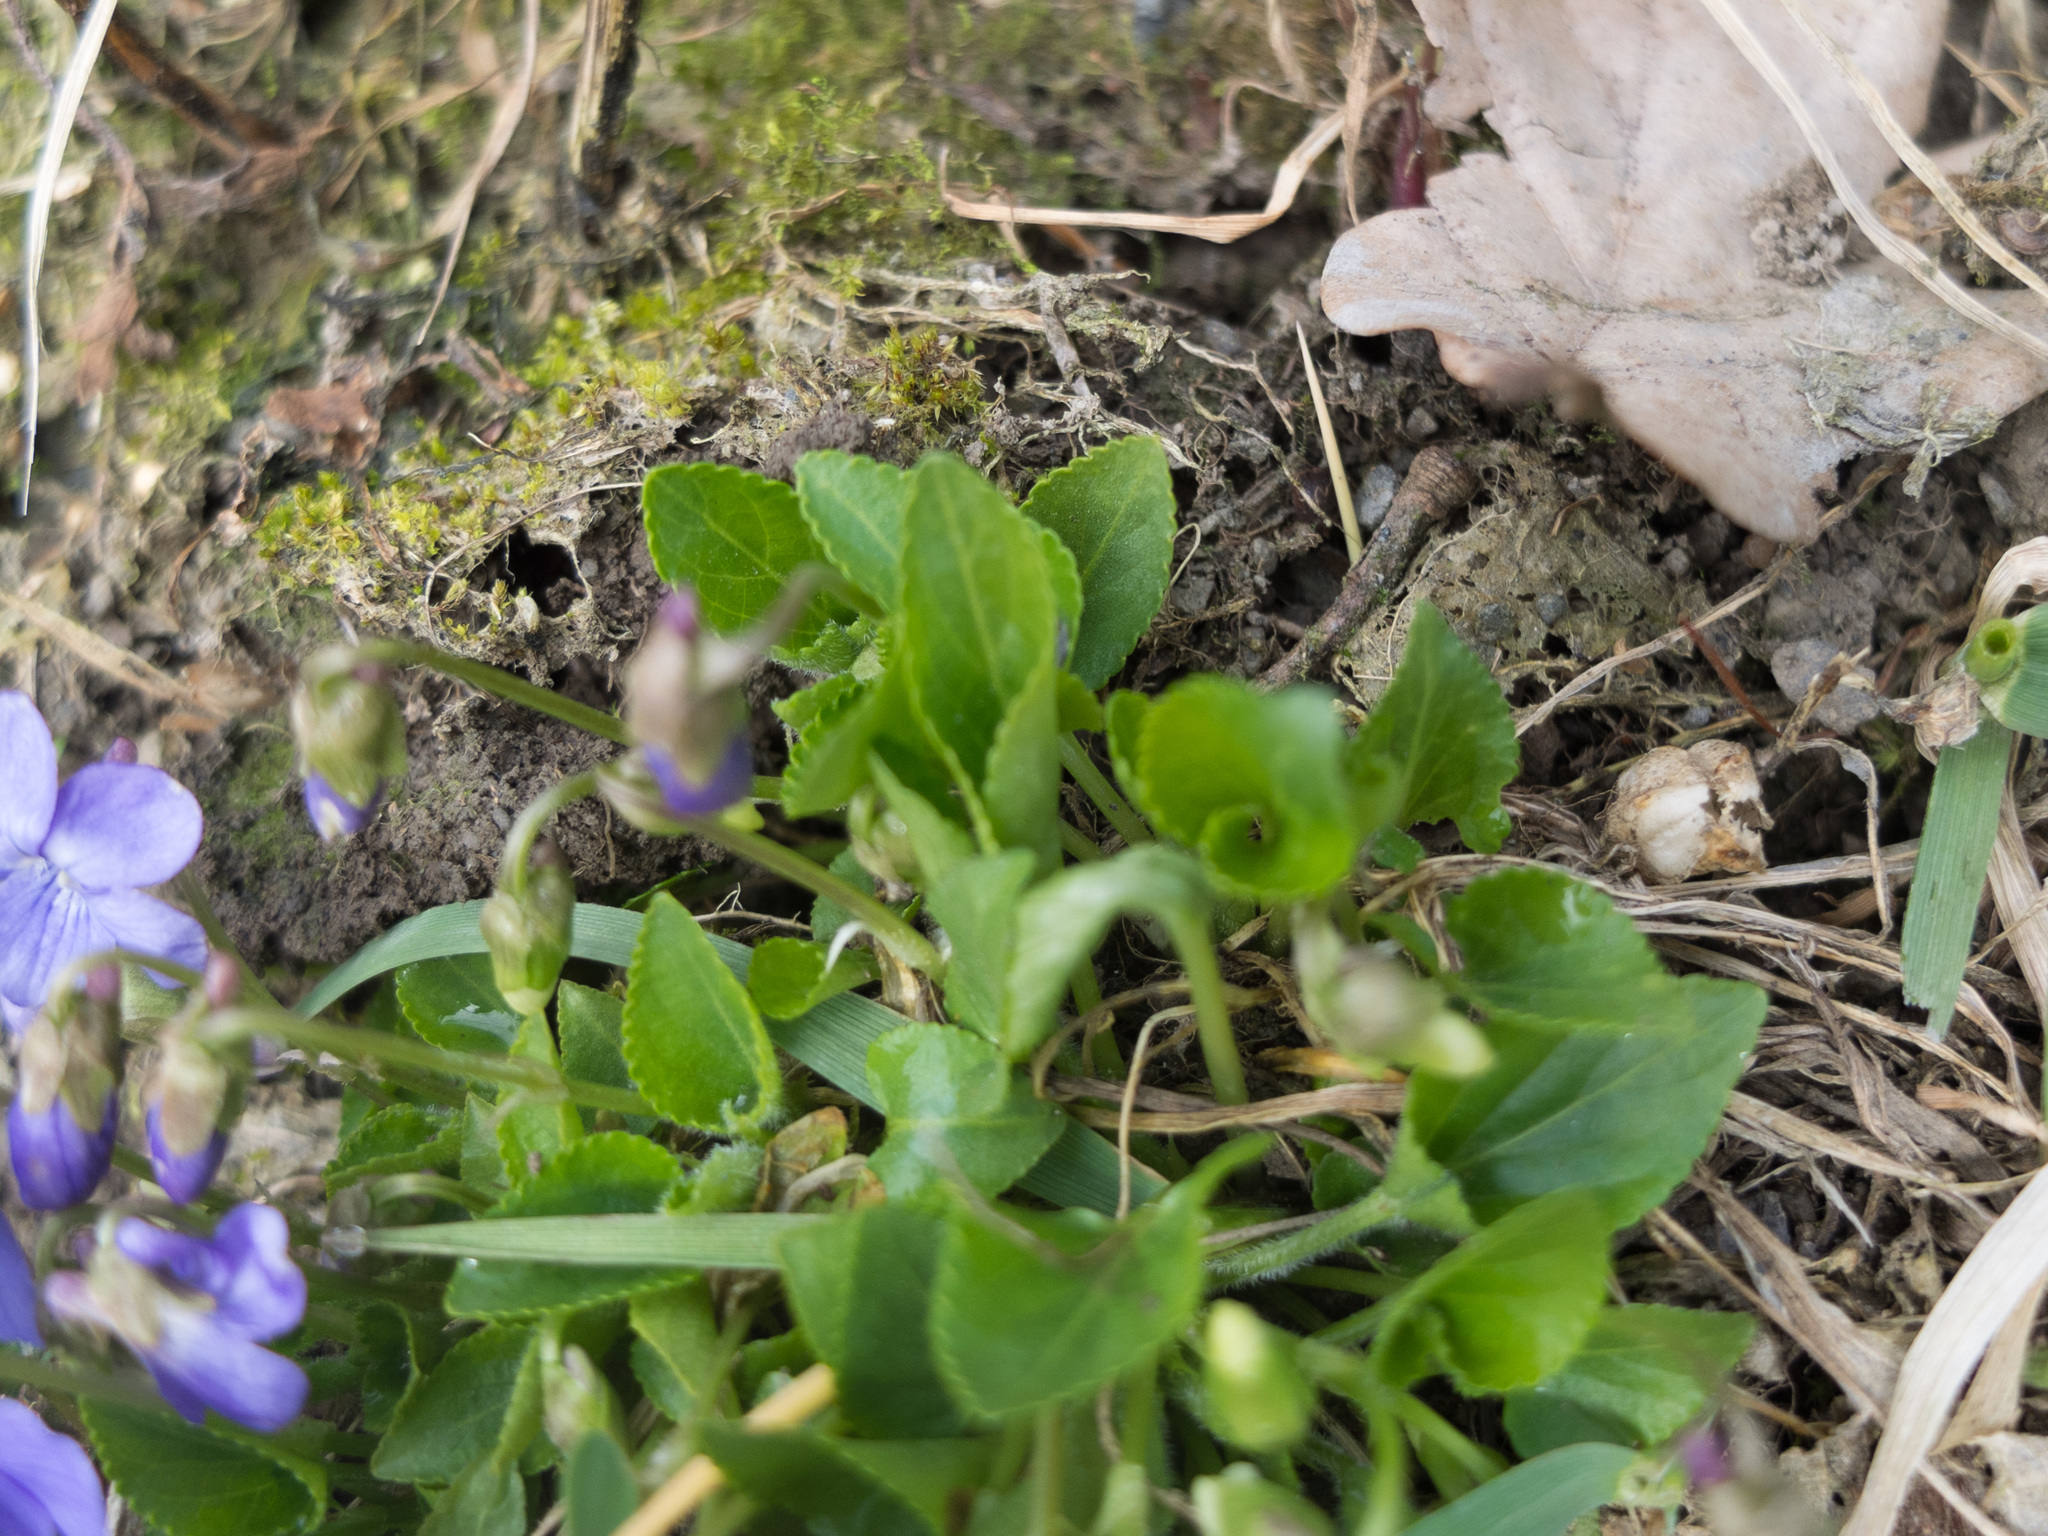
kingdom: Plantae
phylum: Tracheophyta
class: Magnoliopsida
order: Malpighiales
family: Violaceae
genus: Viola
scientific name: Viola reichenbachiana
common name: Early dog-violet
